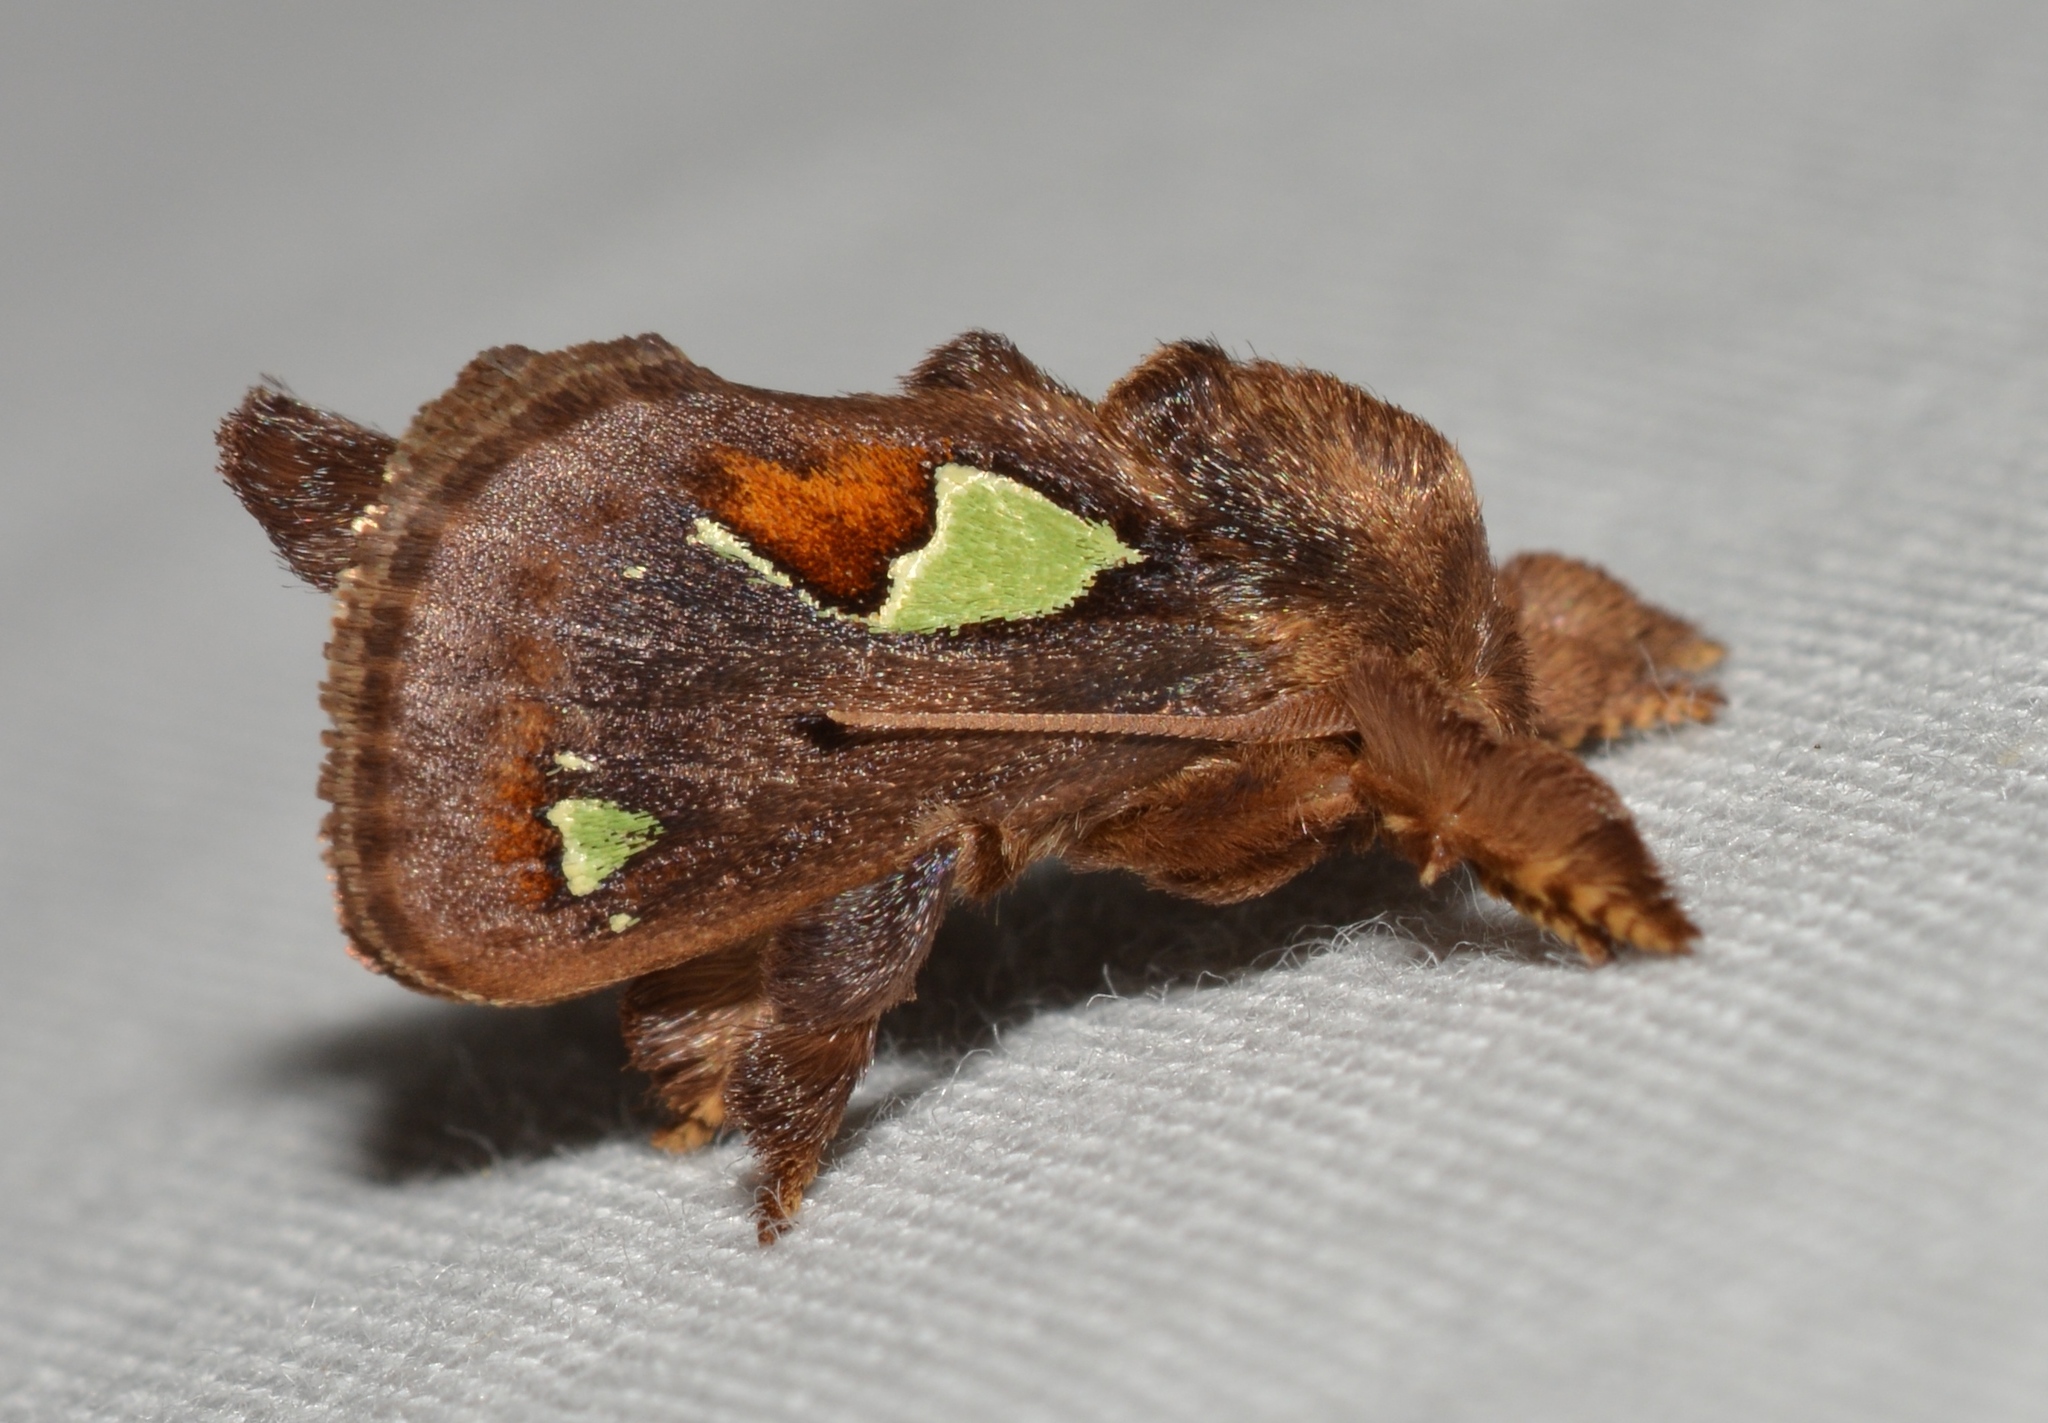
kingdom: Animalia
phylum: Arthropoda
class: Insecta
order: Lepidoptera
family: Limacodidae
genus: Euclea
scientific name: Euclea delphinii
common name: Spiny oak-slug moth
